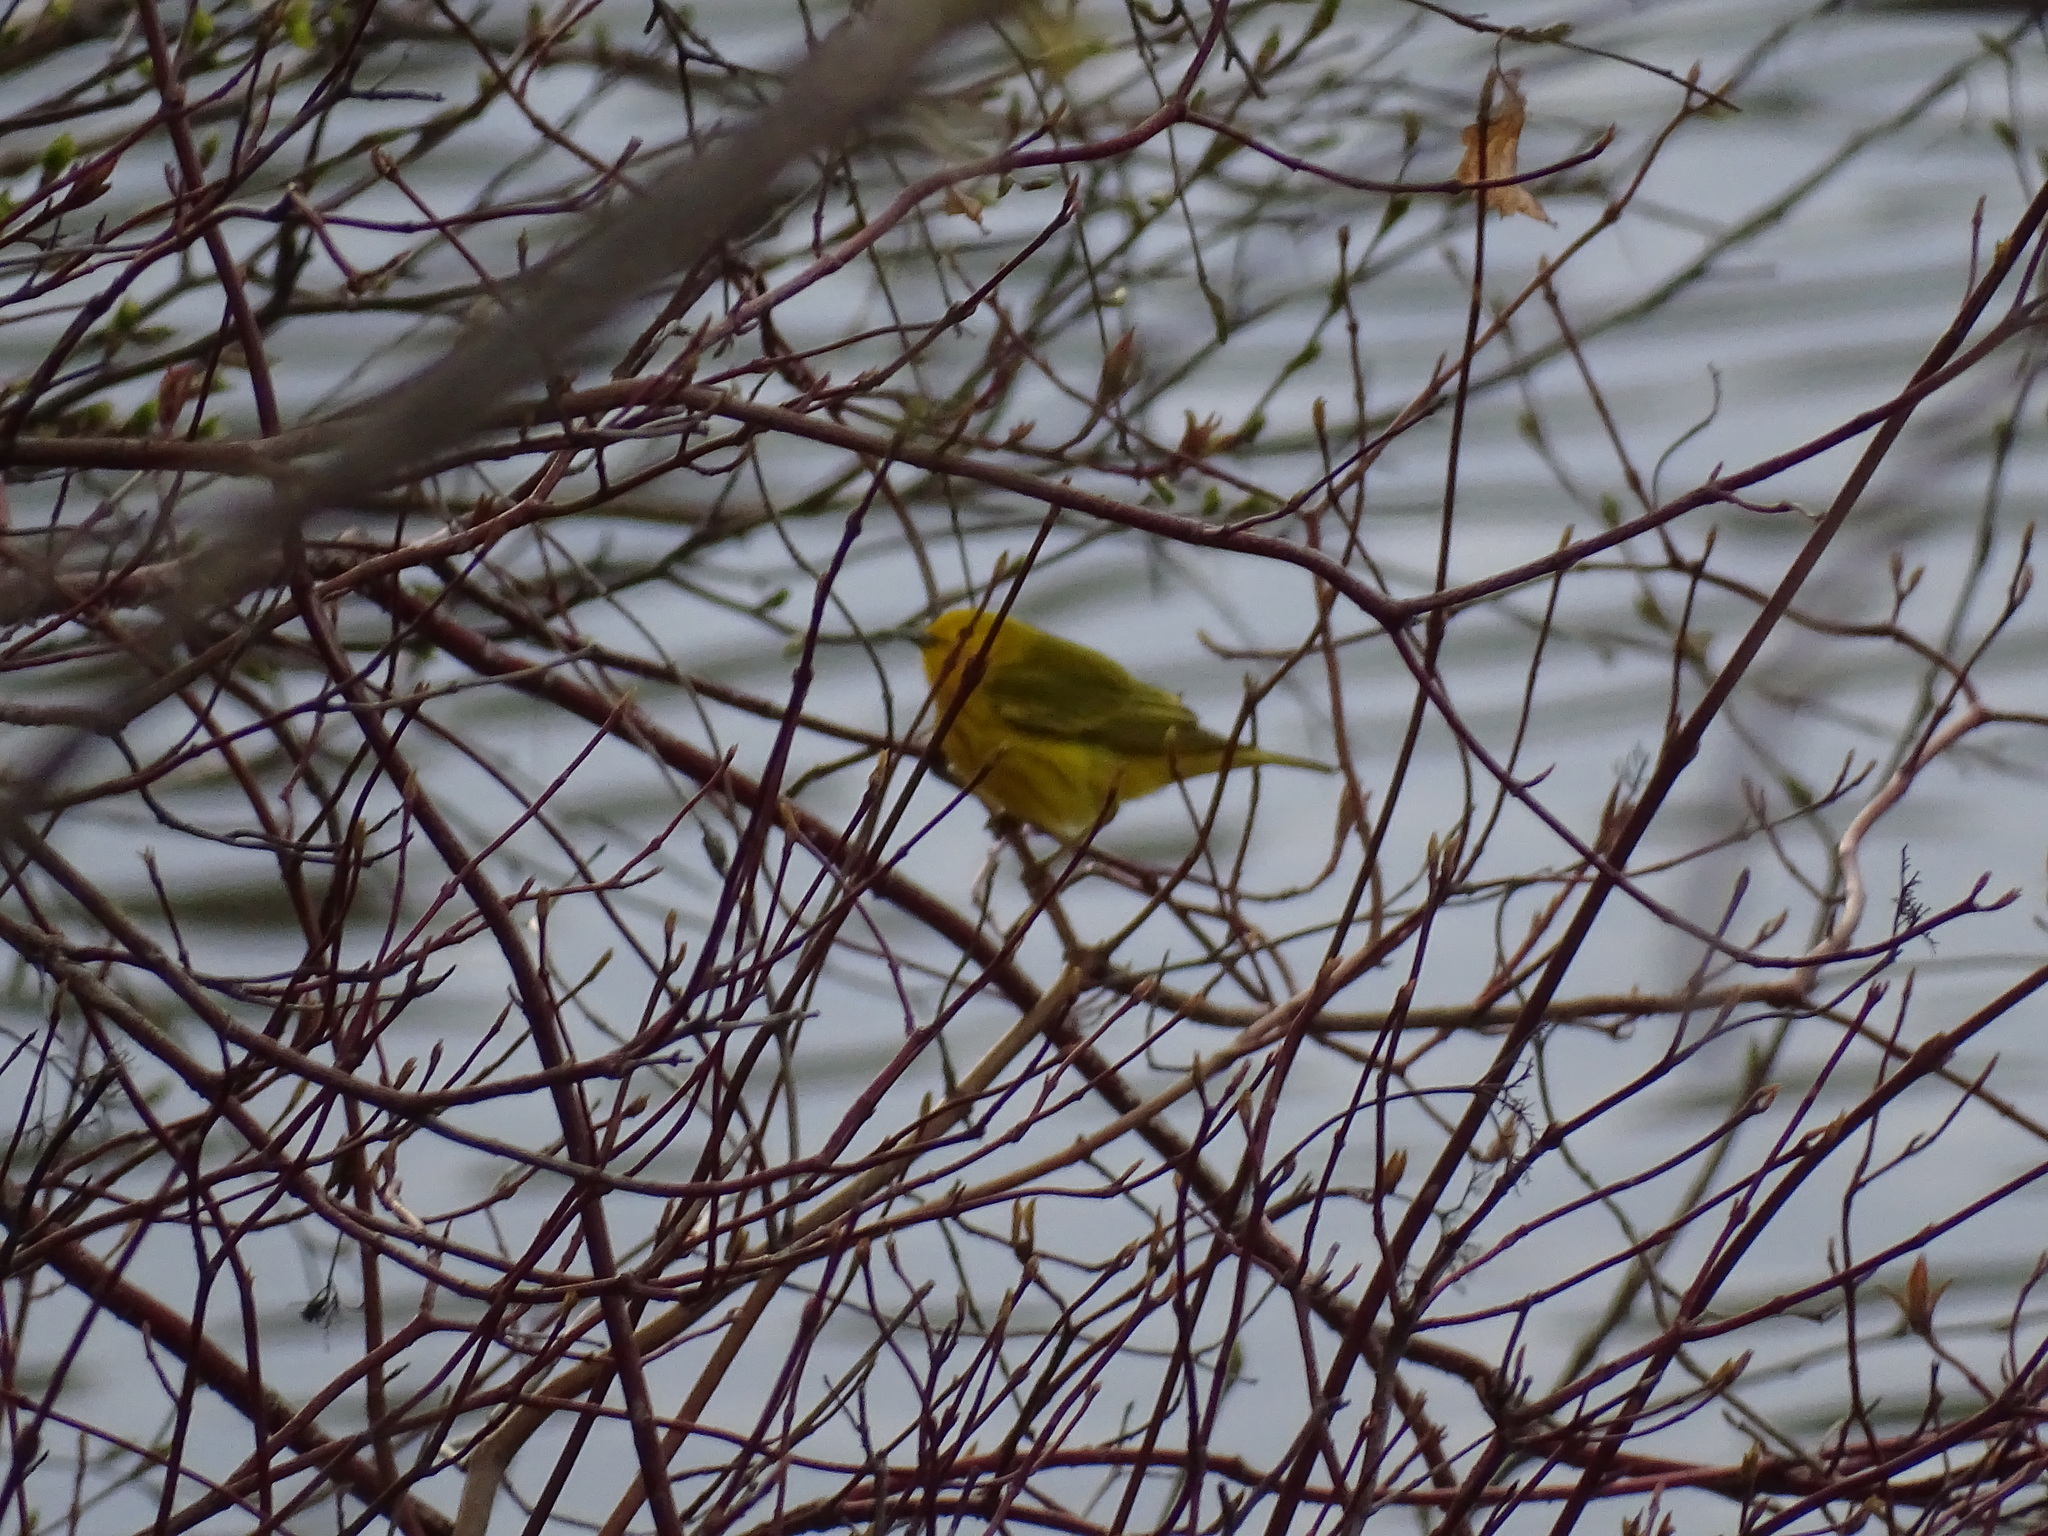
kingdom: Animalia
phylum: Chordata
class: Aves
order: Passeriformes
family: Parulidae
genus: Setophaga
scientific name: Setophaga petechia
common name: Yellow warbler
